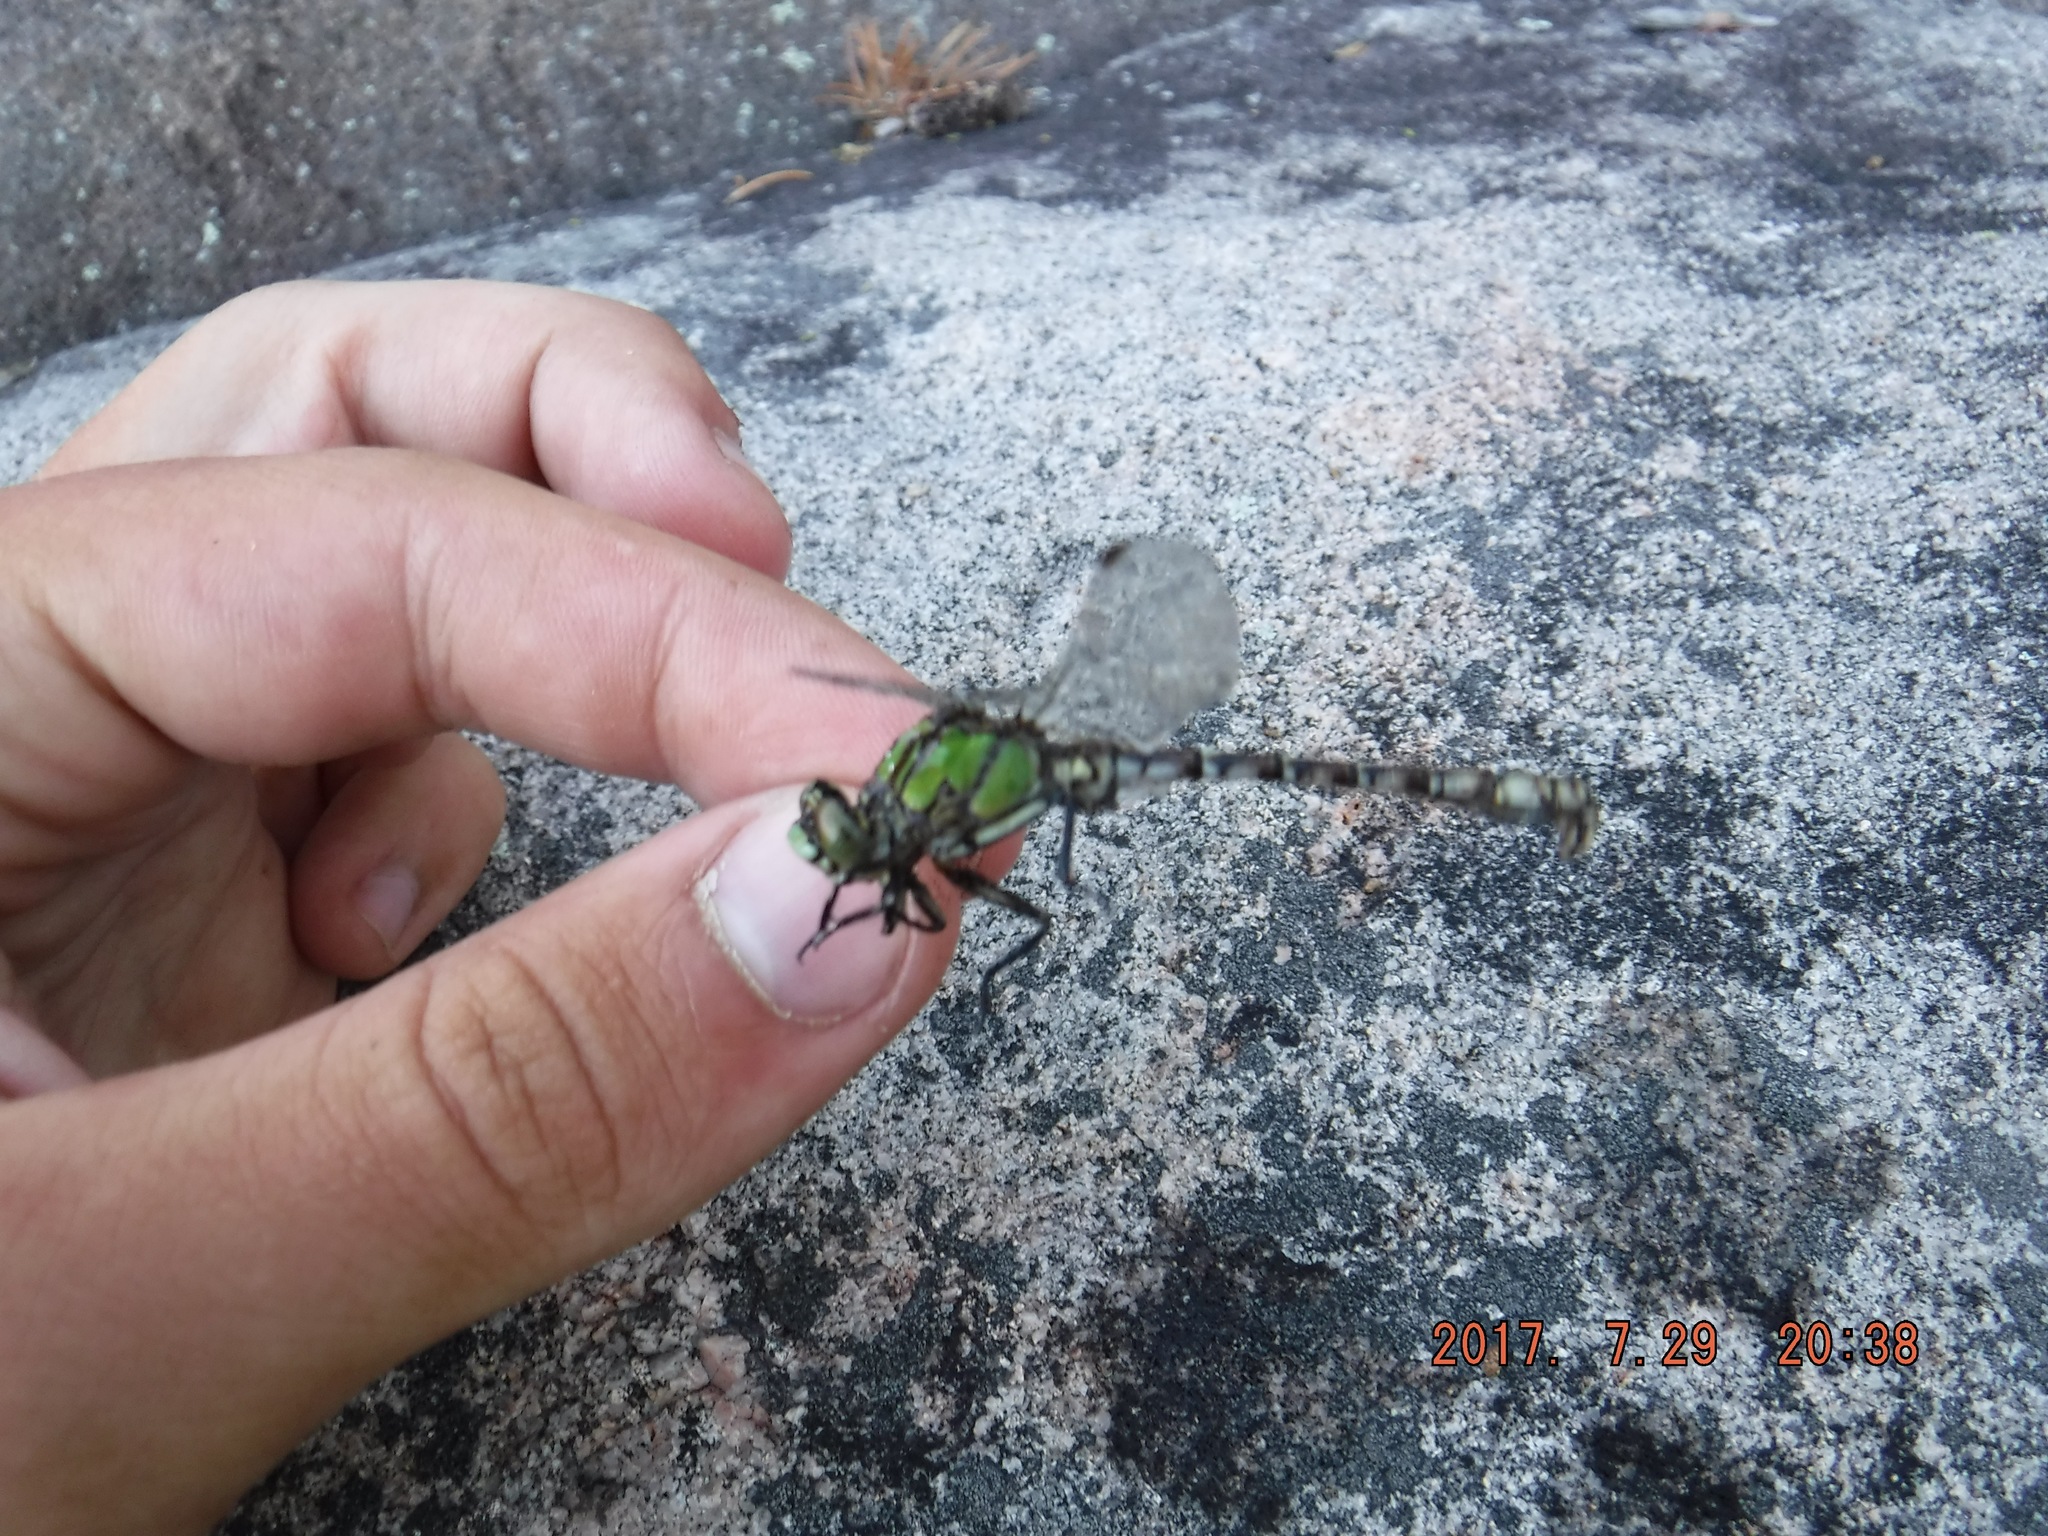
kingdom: Animalia
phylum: Arthropoda
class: Insecta
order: Odonata
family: Gomphidae
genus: Ophiogomphus
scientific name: Ophiogomphus colubrinus
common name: Boreal snaketail
